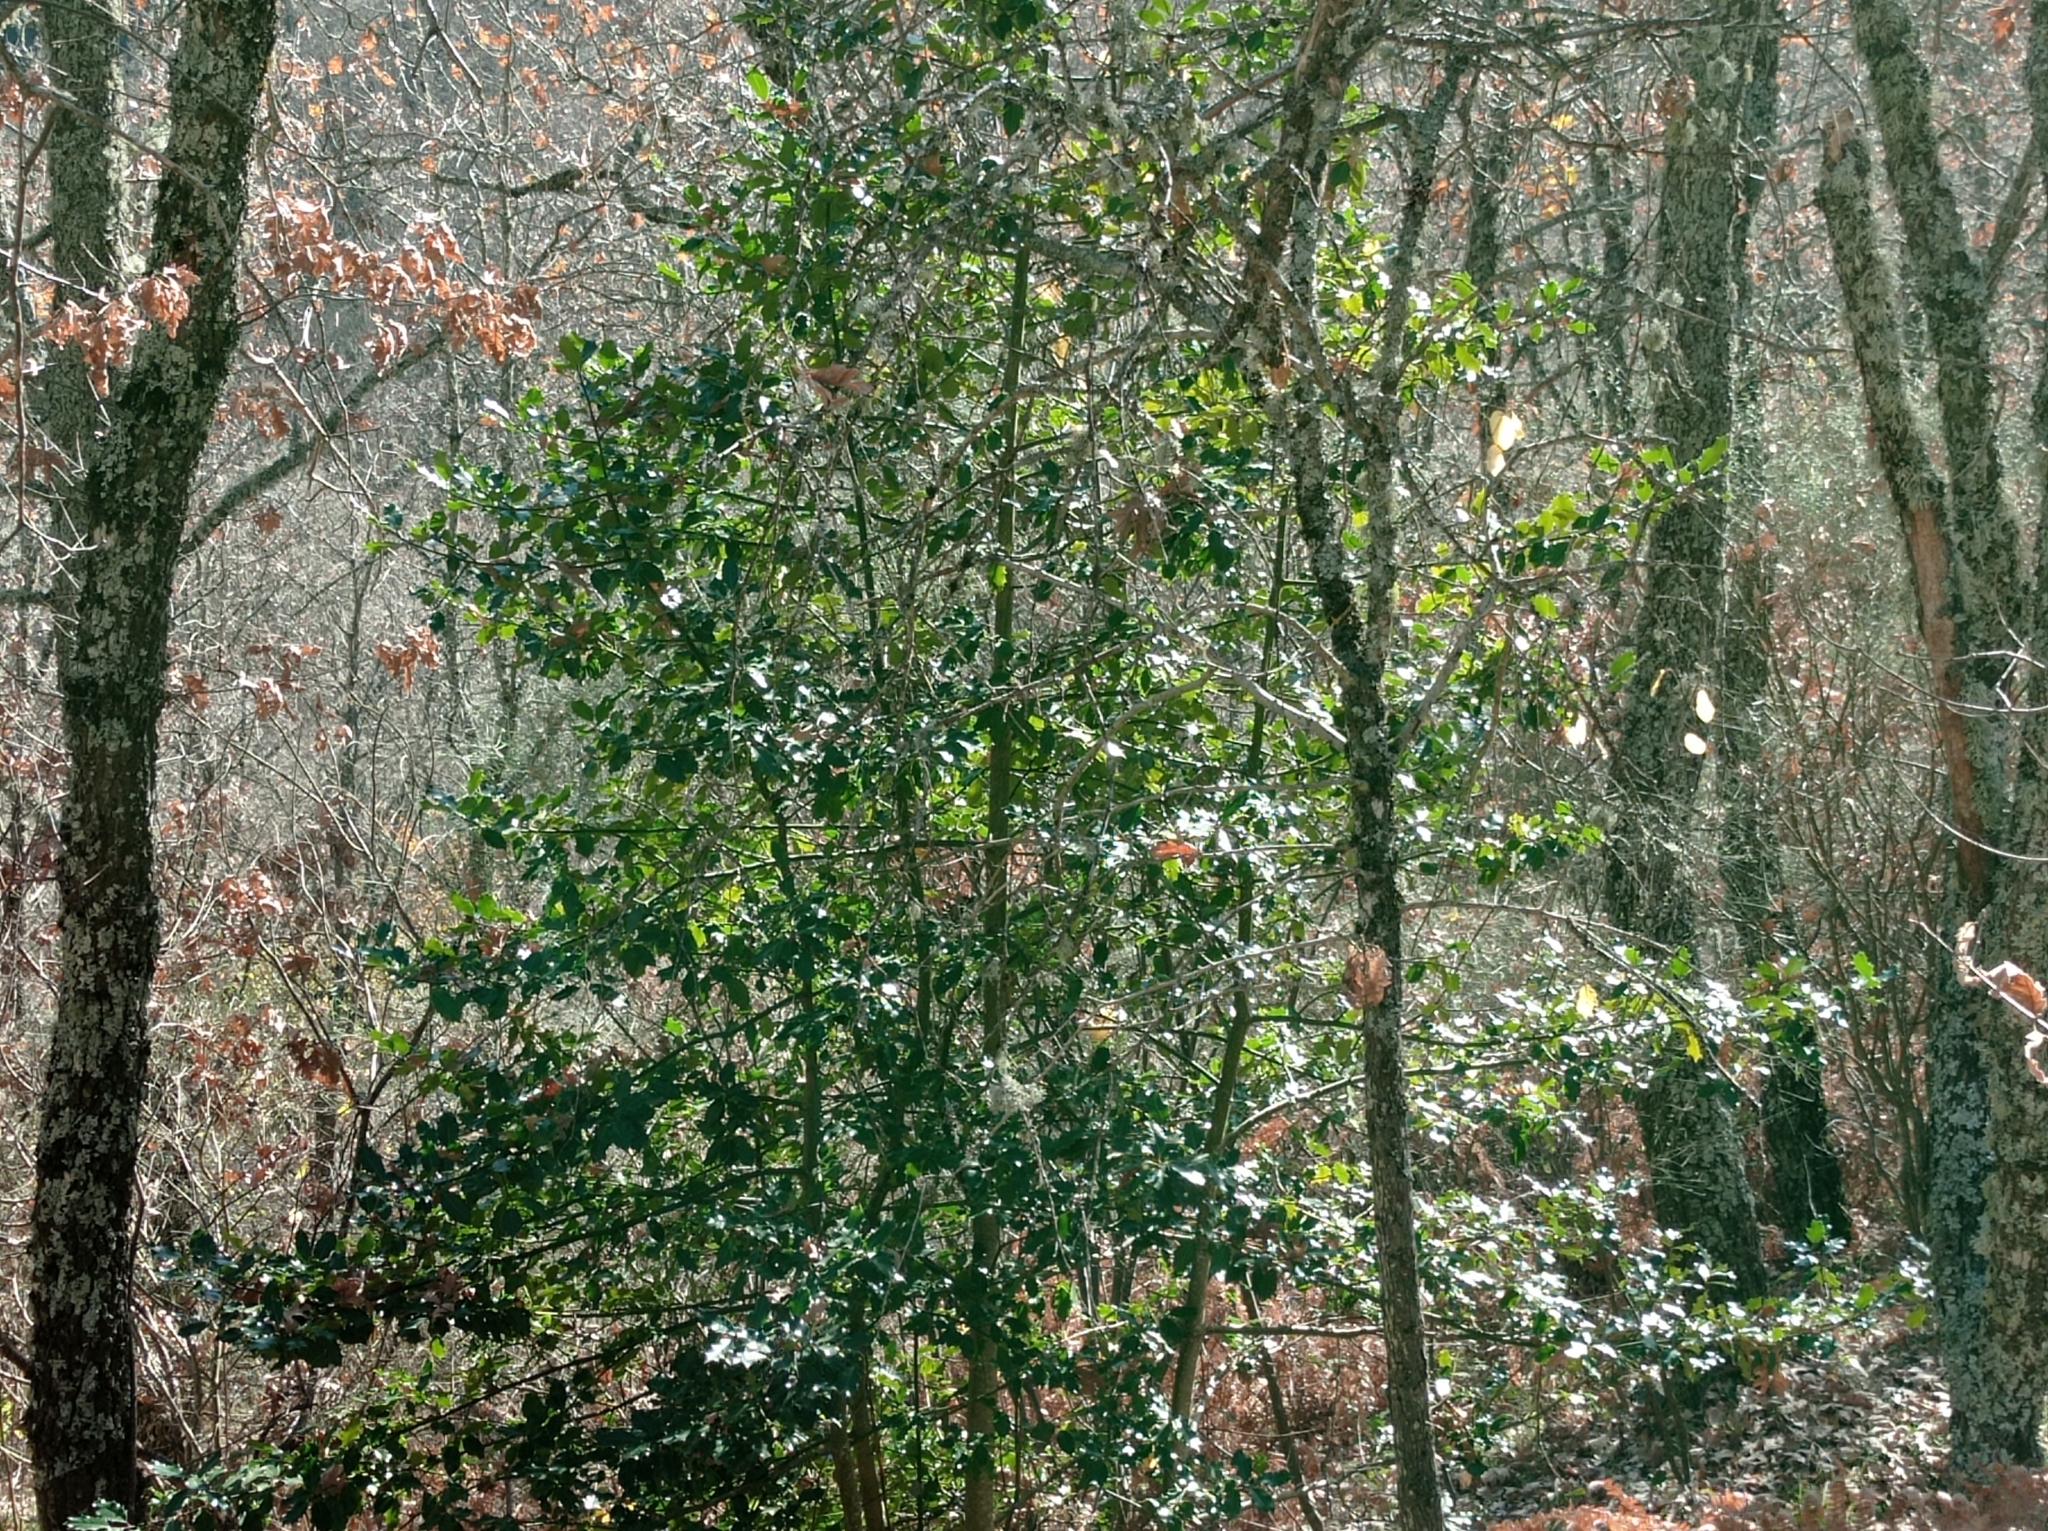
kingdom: Plantae
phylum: Tracheophyta
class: Magnoliopsida
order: Aquifoliales
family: Aquifoliaceae
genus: Ilex
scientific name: Ilex aquifolium
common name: English holly
